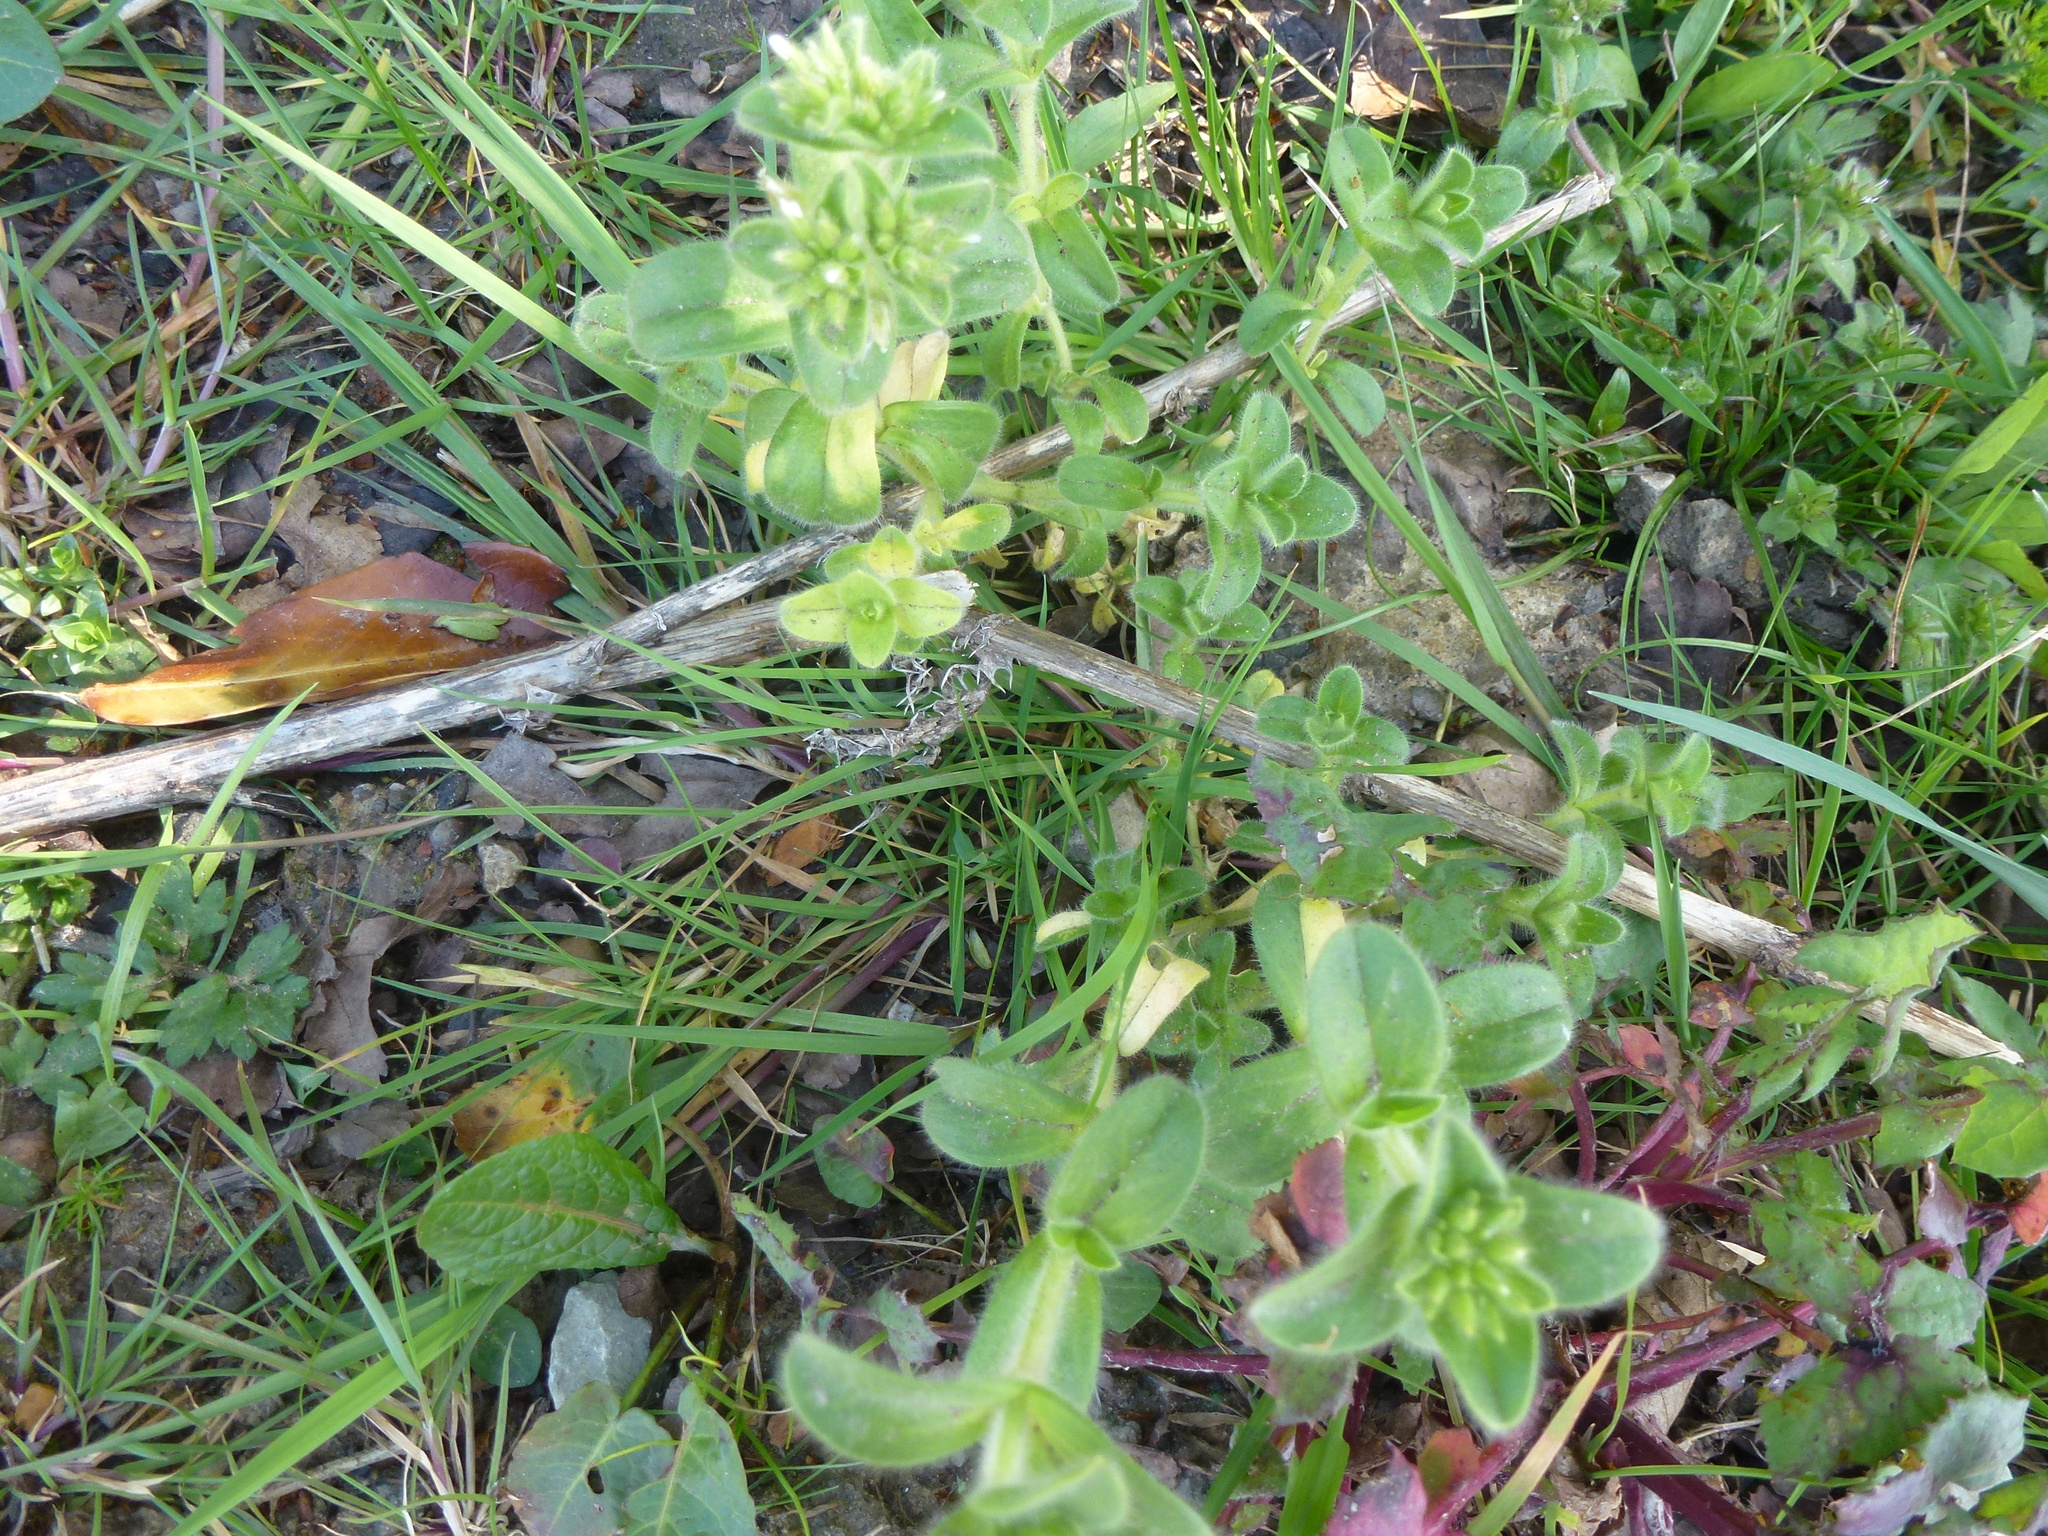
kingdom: Plantae
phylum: Tracheophyta
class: Magnoliopsida
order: Caryophyllales
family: Caryophyllaceae
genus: Cerastium
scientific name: Cerastium glomeratum
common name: Sticky chickweed
